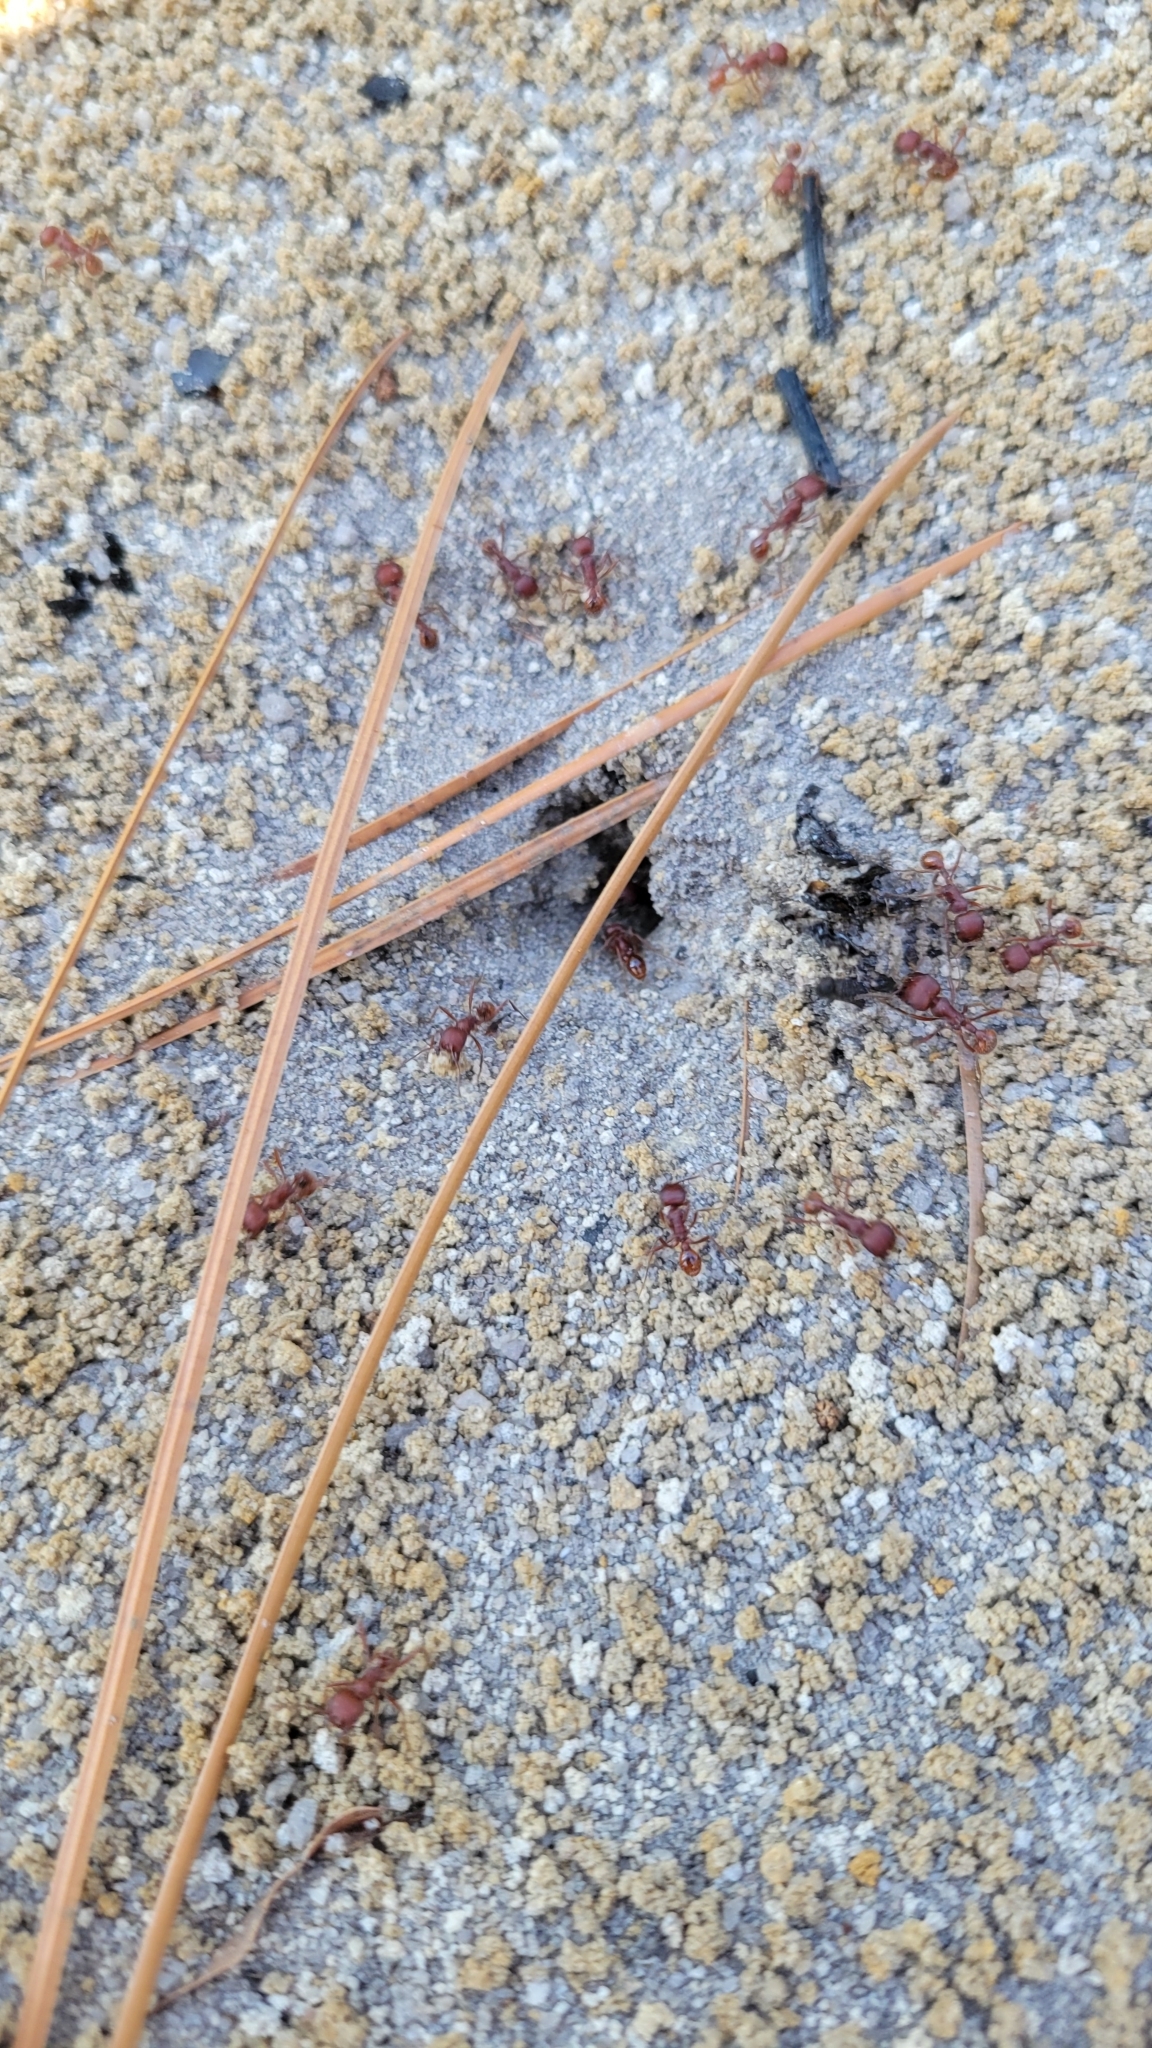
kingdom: Animalia
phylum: Arthropoda
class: Insecta
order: Hymenoptera
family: Formicidae
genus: Pogonomyrmex
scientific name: Pogonomyrmex badius
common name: Florida harvester ant
